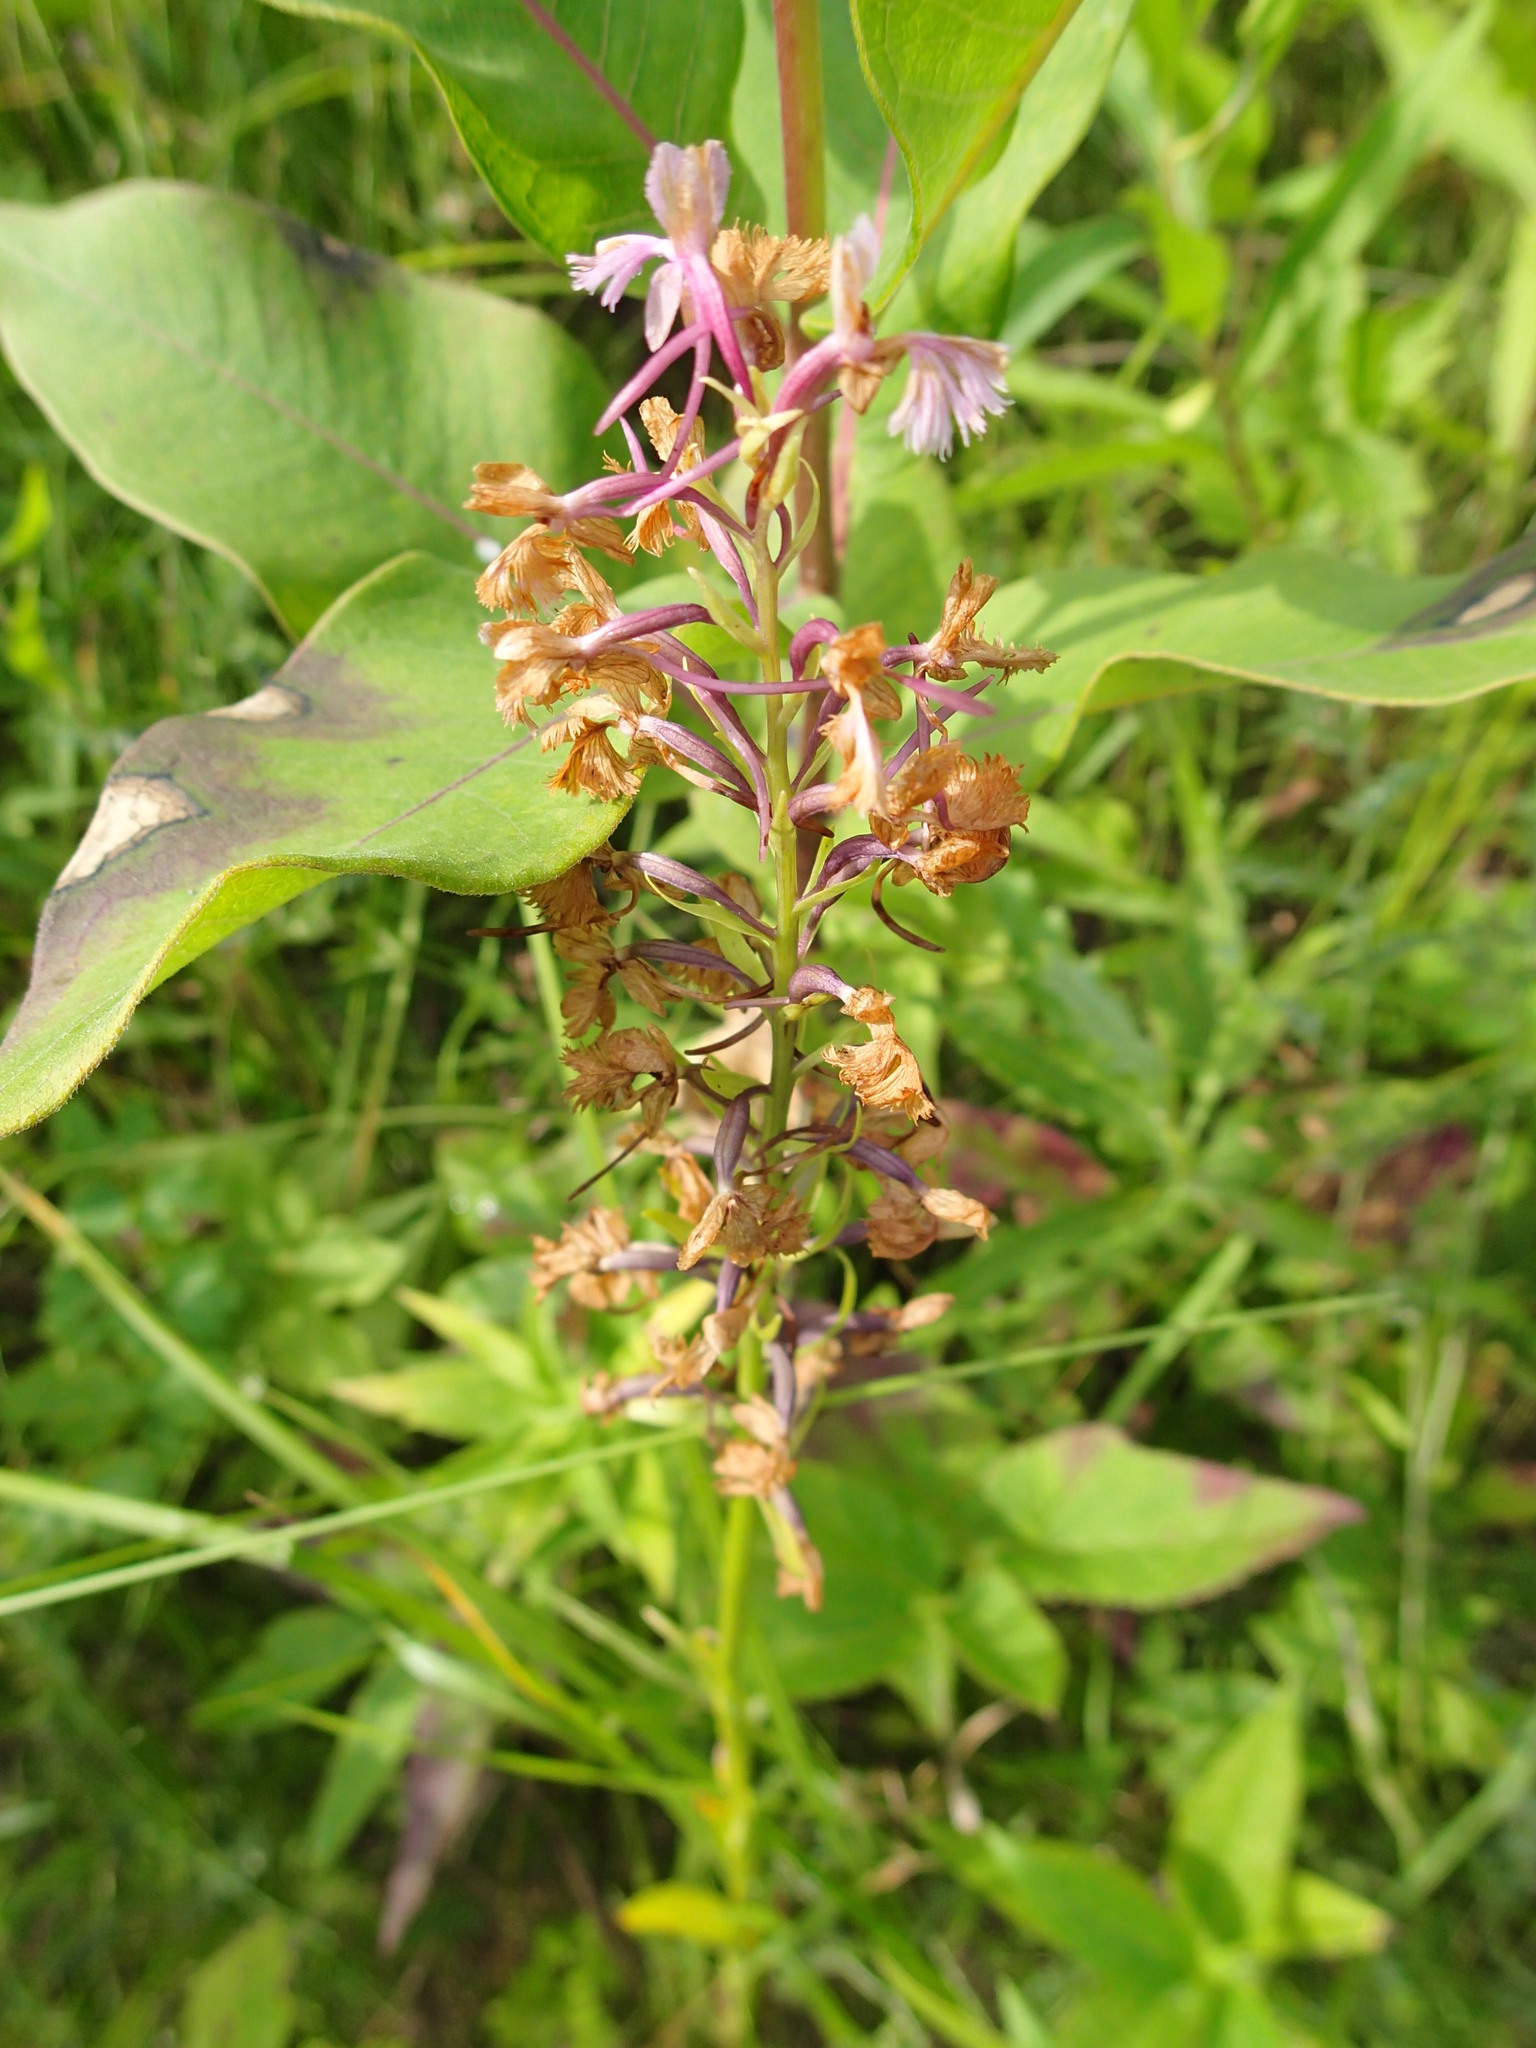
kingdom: Plantae
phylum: Tracheophyta
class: Liliopsida
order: Asparagales
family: Orchidaceae
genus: Platanthera
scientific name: Platanthera psycodes
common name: Lesser purple fringed orchid
